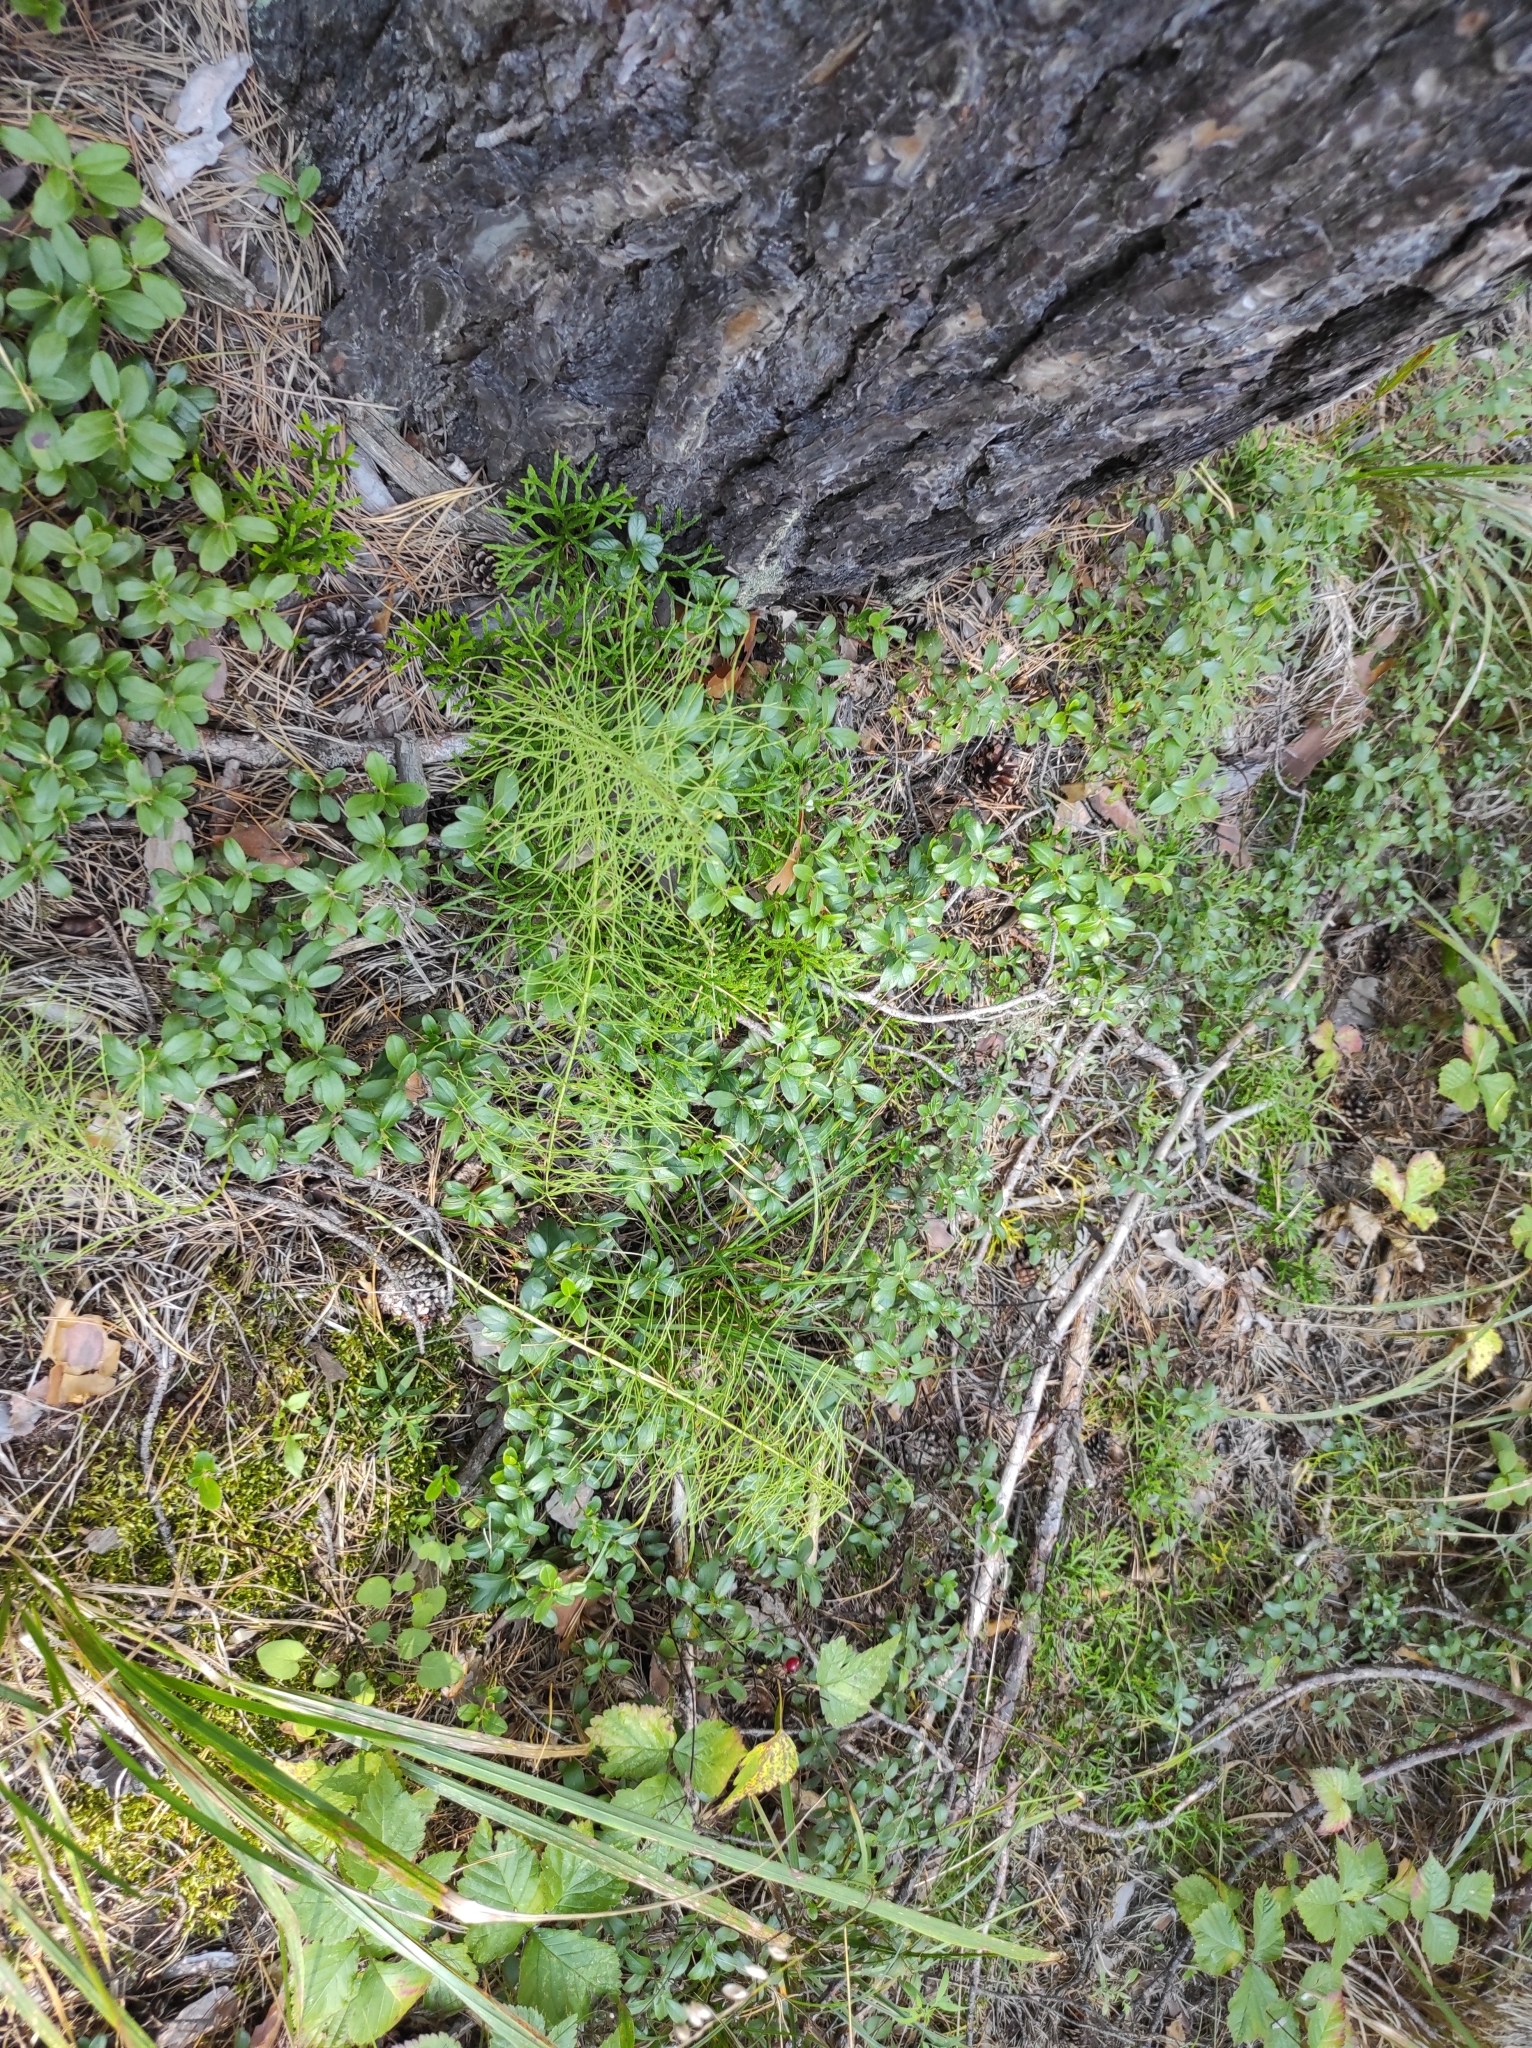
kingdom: Plantae
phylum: Tracheophyta
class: Polypodiopsida
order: Equisetales
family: Equisetaceae
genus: Equisetum
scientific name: Equisetum pratense
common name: Meadow horsetail
